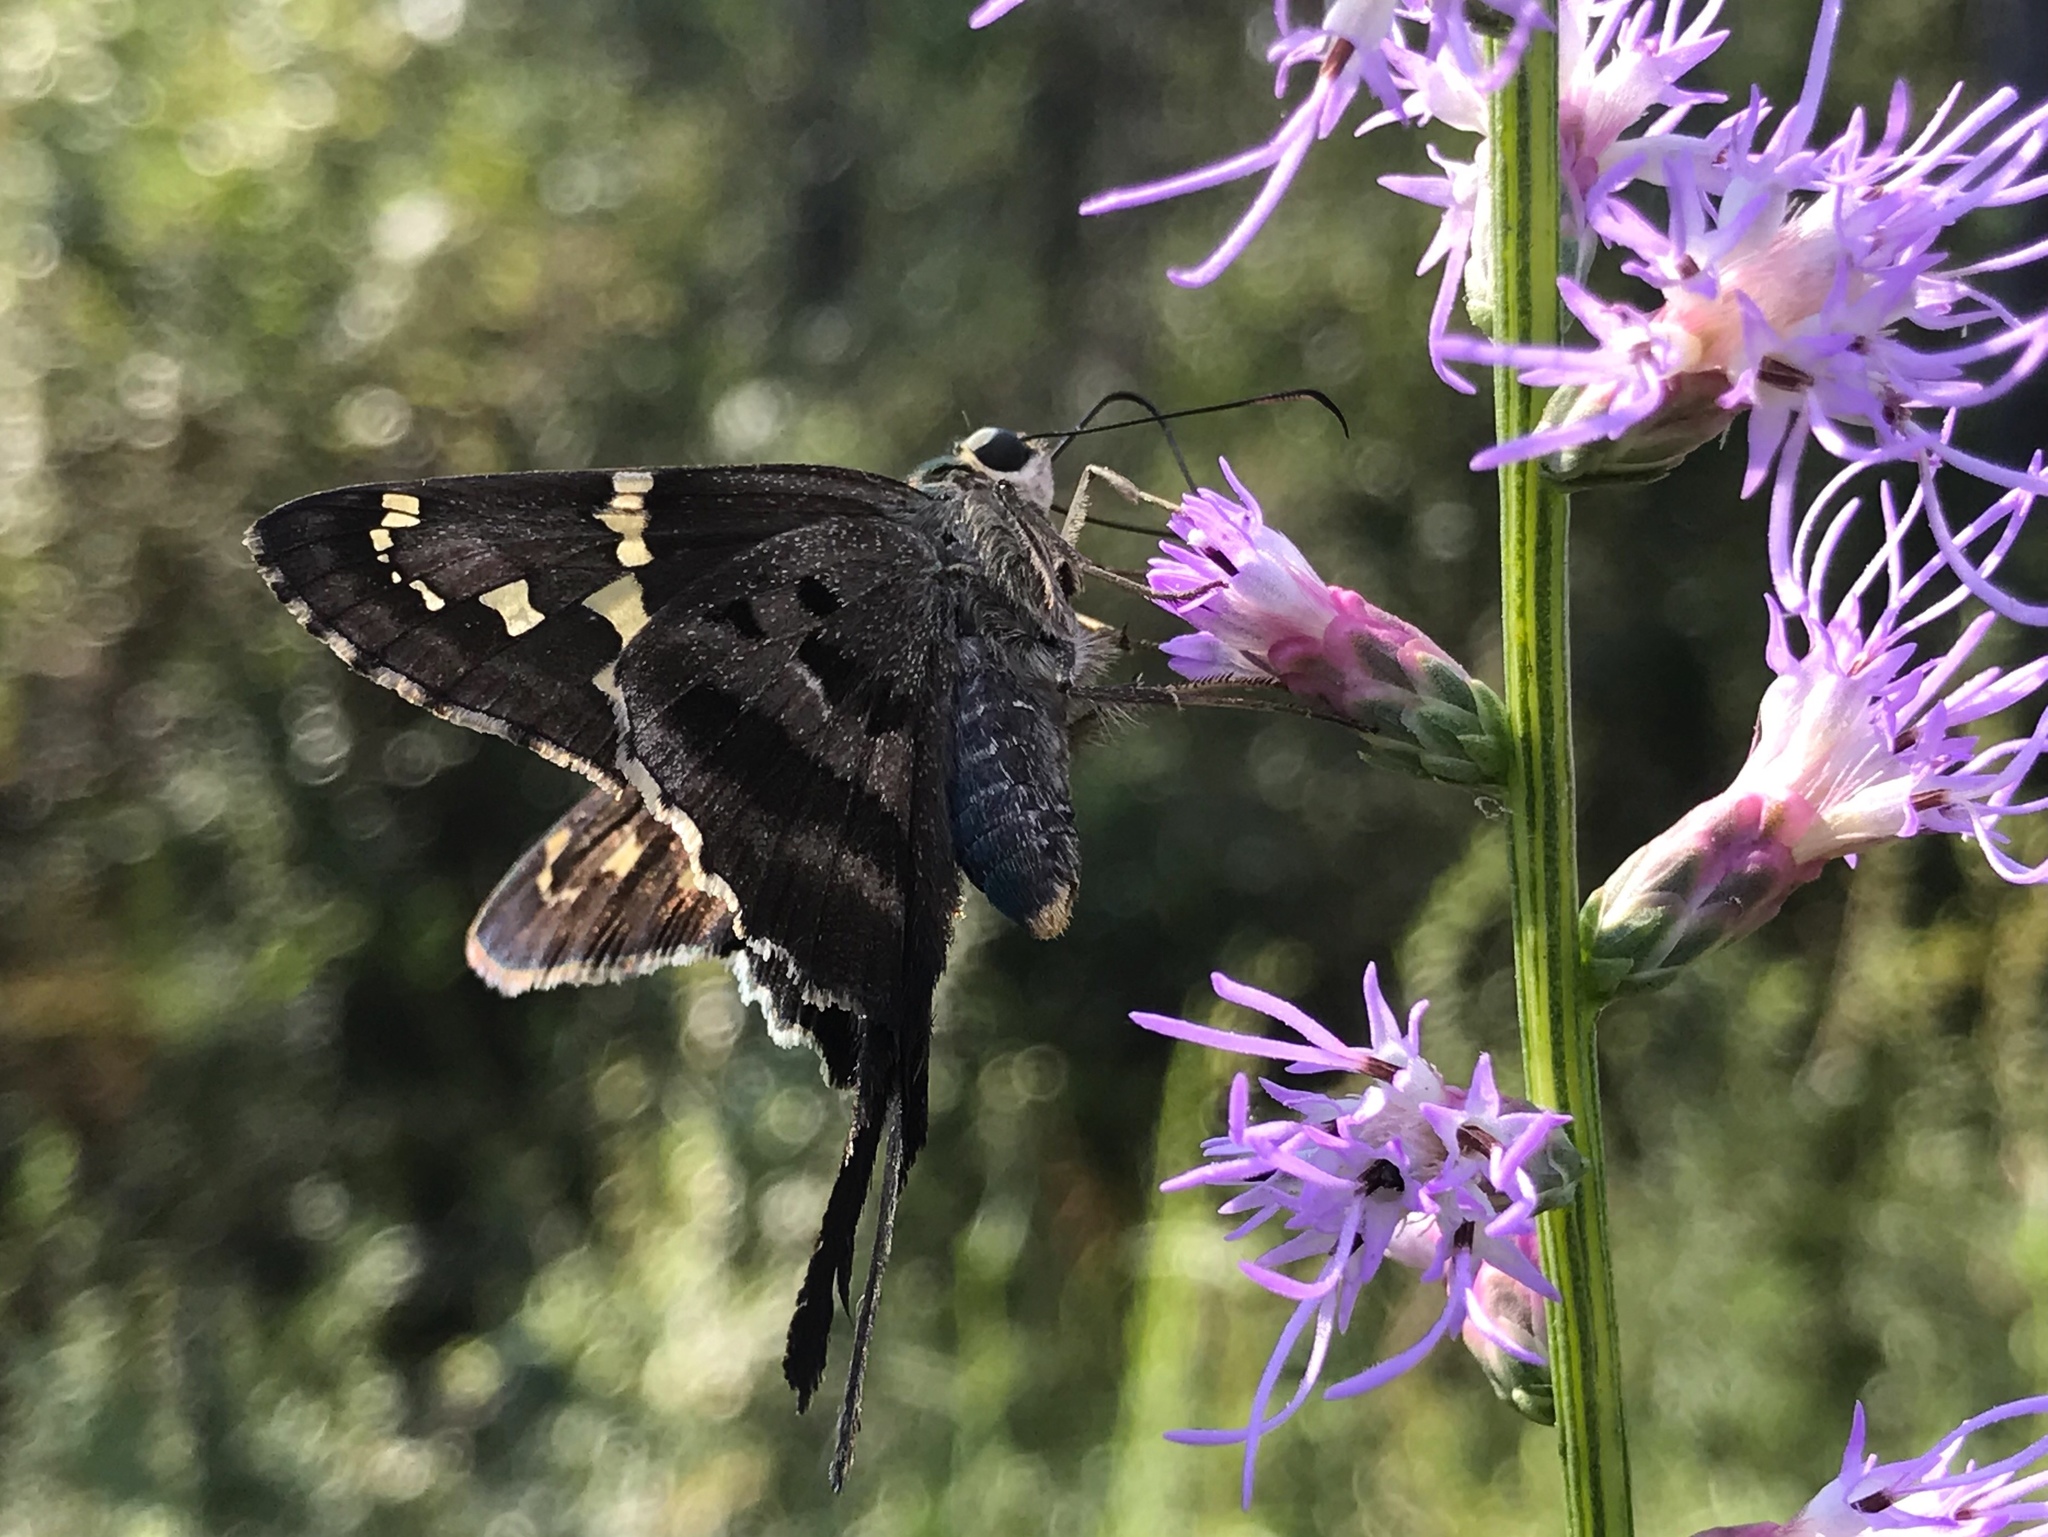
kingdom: Animalia
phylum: Arthropoda
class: Insecta
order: Lepidoptera
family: Hesperiidae
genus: Urbanus
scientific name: Urbanus proteus
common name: Long-tailed skipper
